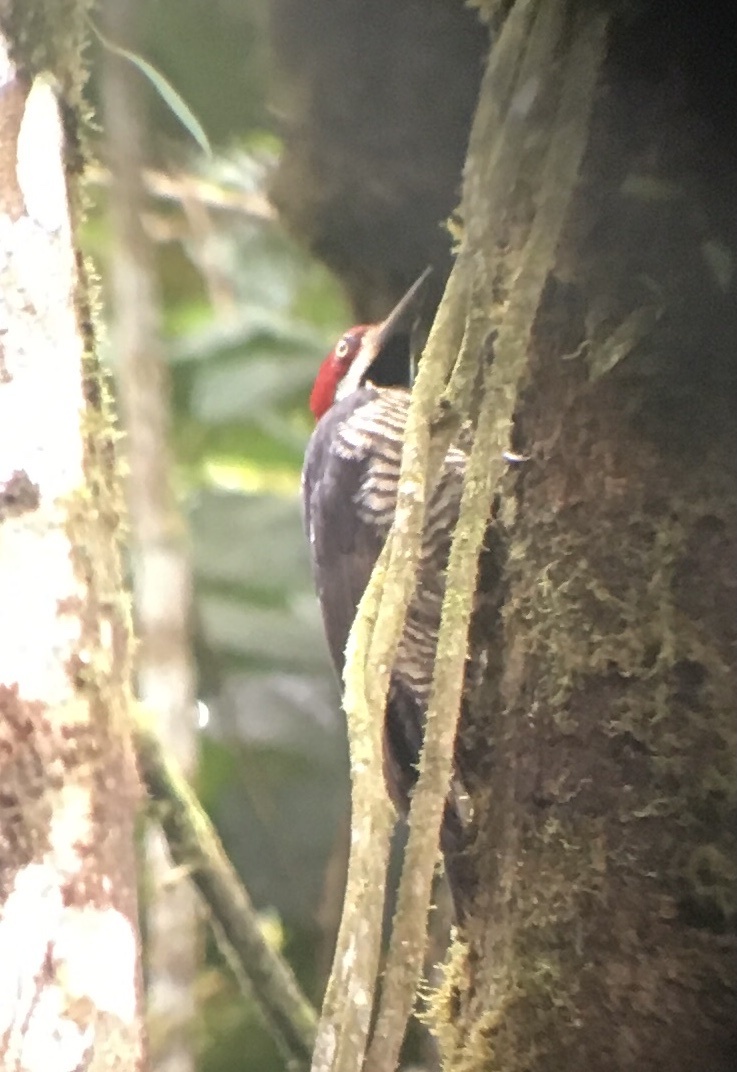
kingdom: Animalia
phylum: Chordata
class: Aves
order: Piciformes
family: Picidae
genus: Campephilus
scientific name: Campephilus gayaquilensis
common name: Guayaquil woodpecker
